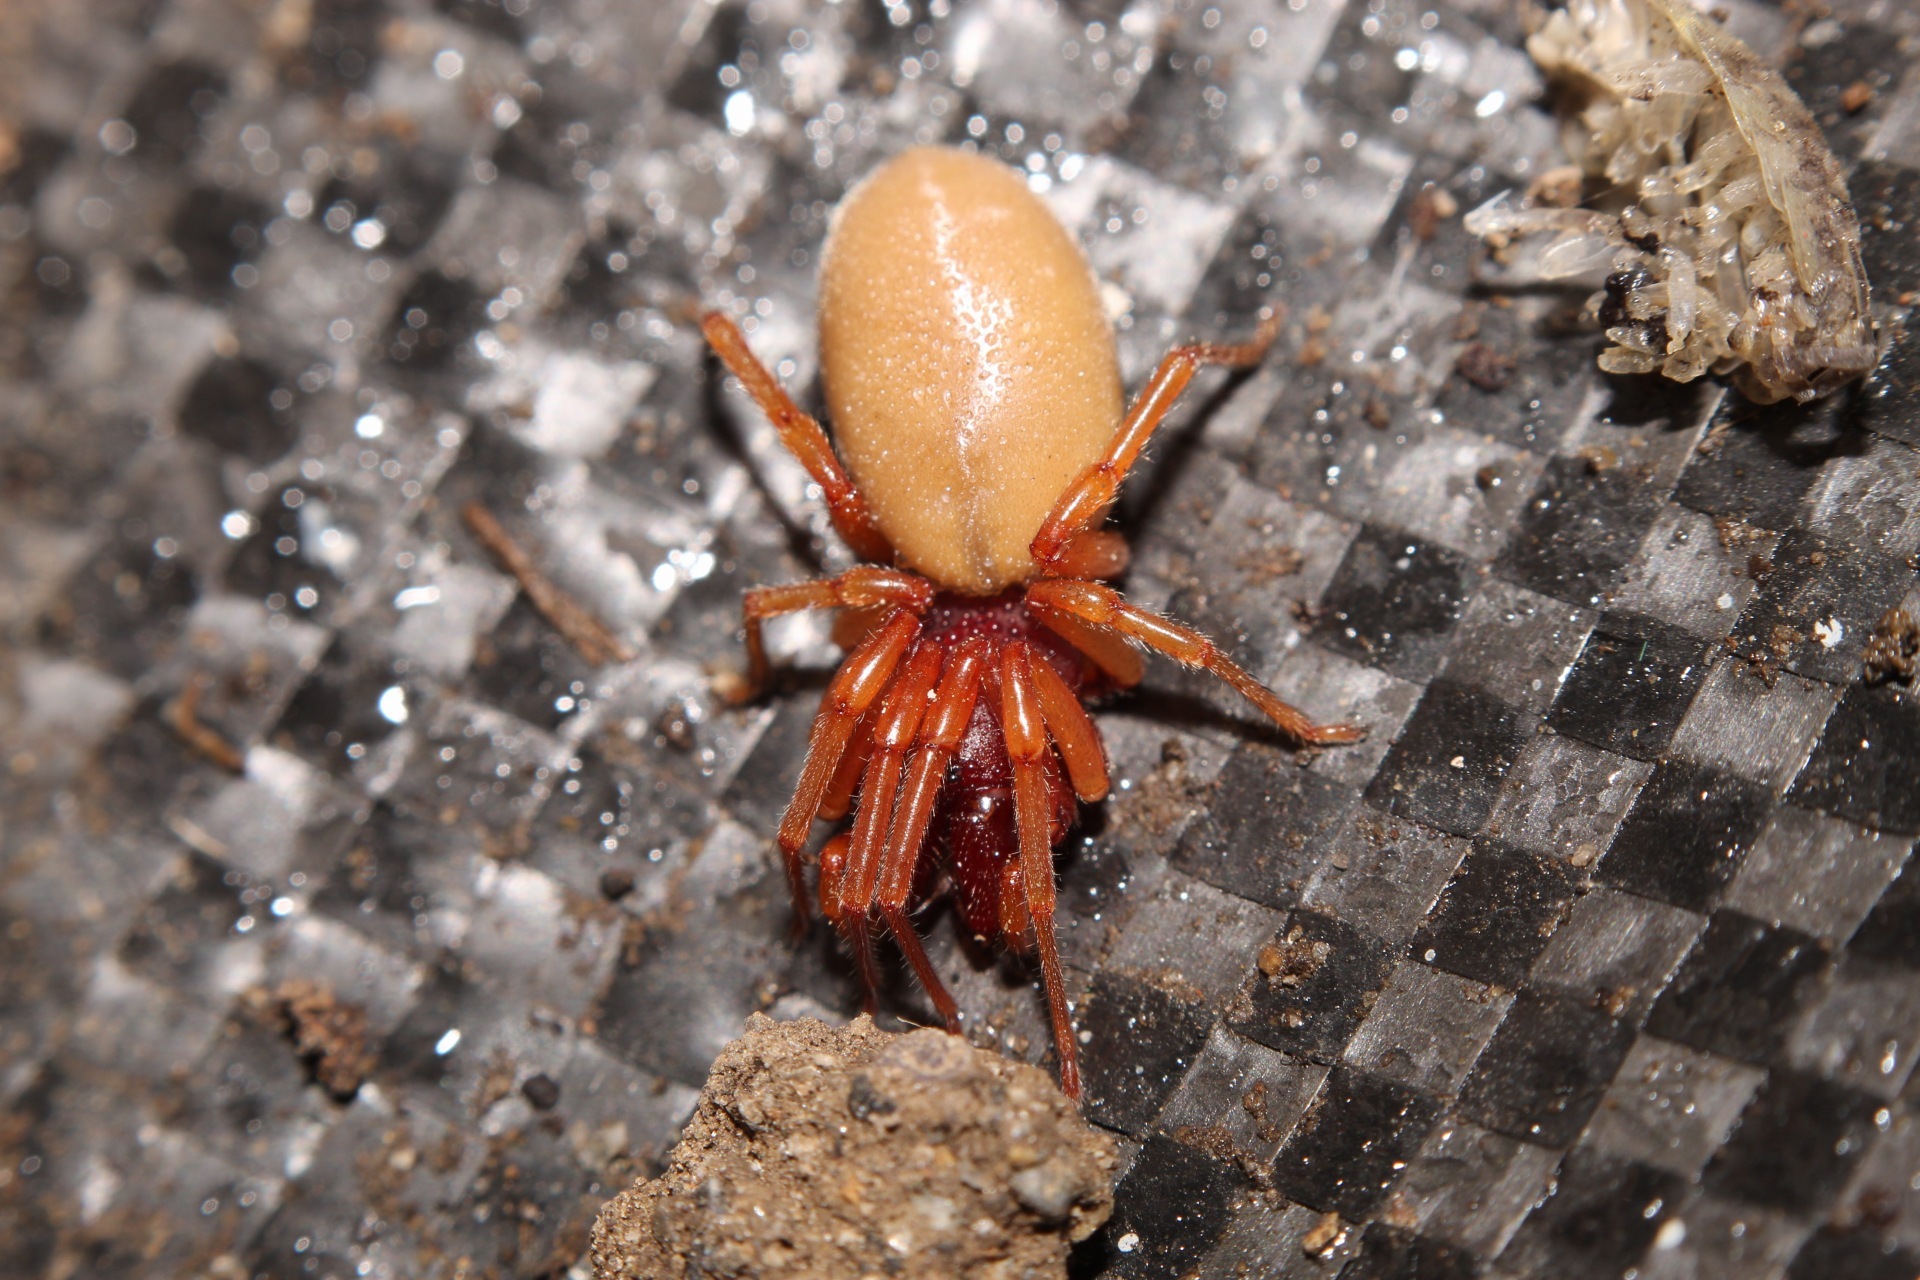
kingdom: Animalia
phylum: Arthropoda
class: Arachnida
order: Araneae
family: Dysderidae
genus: Dysdera
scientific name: Dysdera crocata
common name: Woodlouse spider
